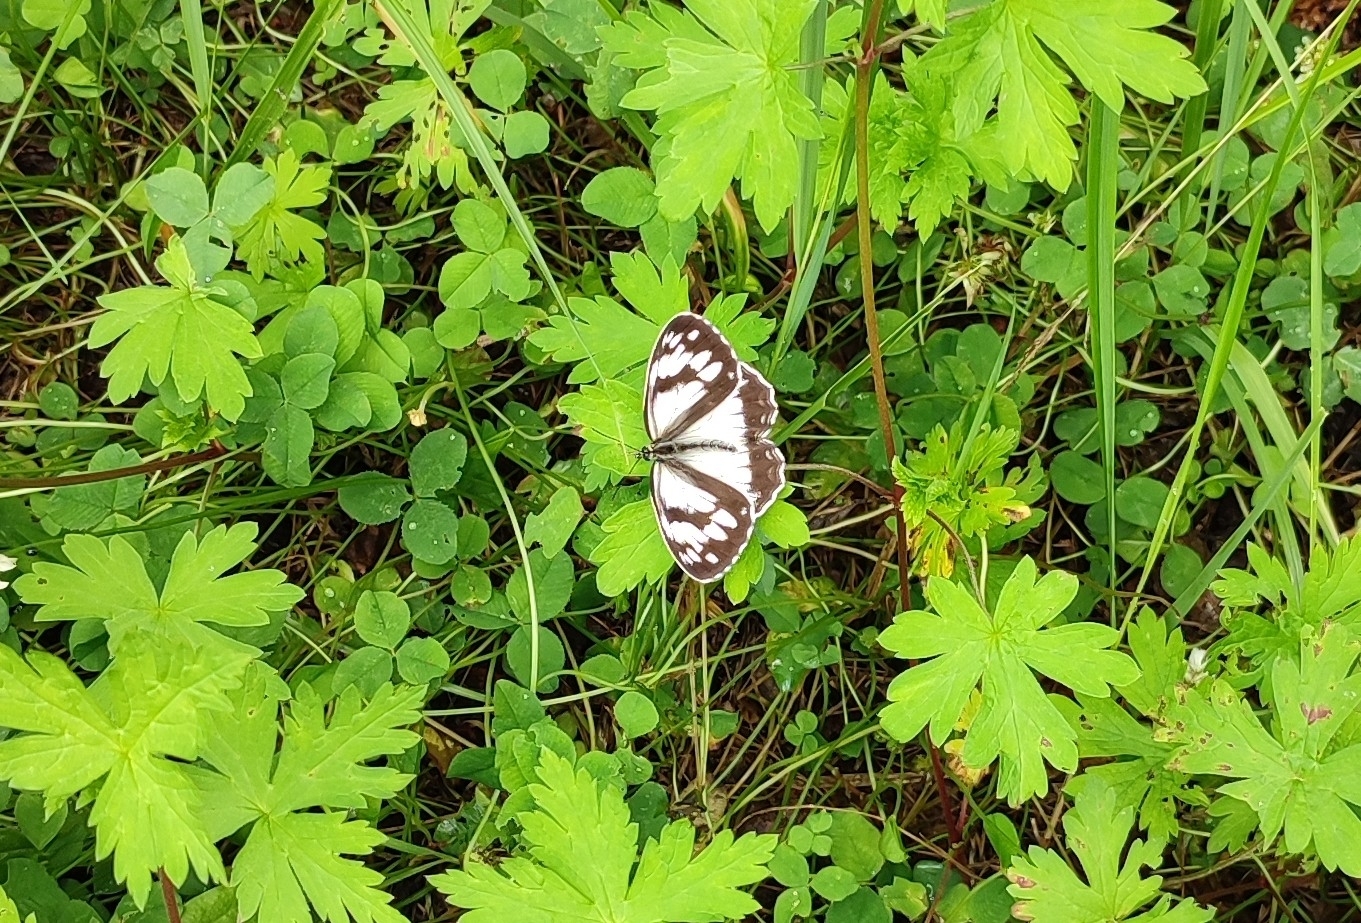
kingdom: Animalia
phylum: Arthropoda
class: Insecta
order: Lepidoptera
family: Nymphalidae
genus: Melanargia
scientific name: Melanargia halimede
